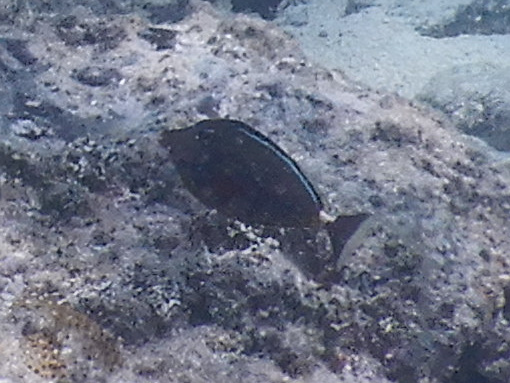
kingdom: Animalia
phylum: Chordata
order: Perciformes
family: Acanthuridae
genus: Naso
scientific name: Naso lituratus
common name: Orangespine unicornfish
